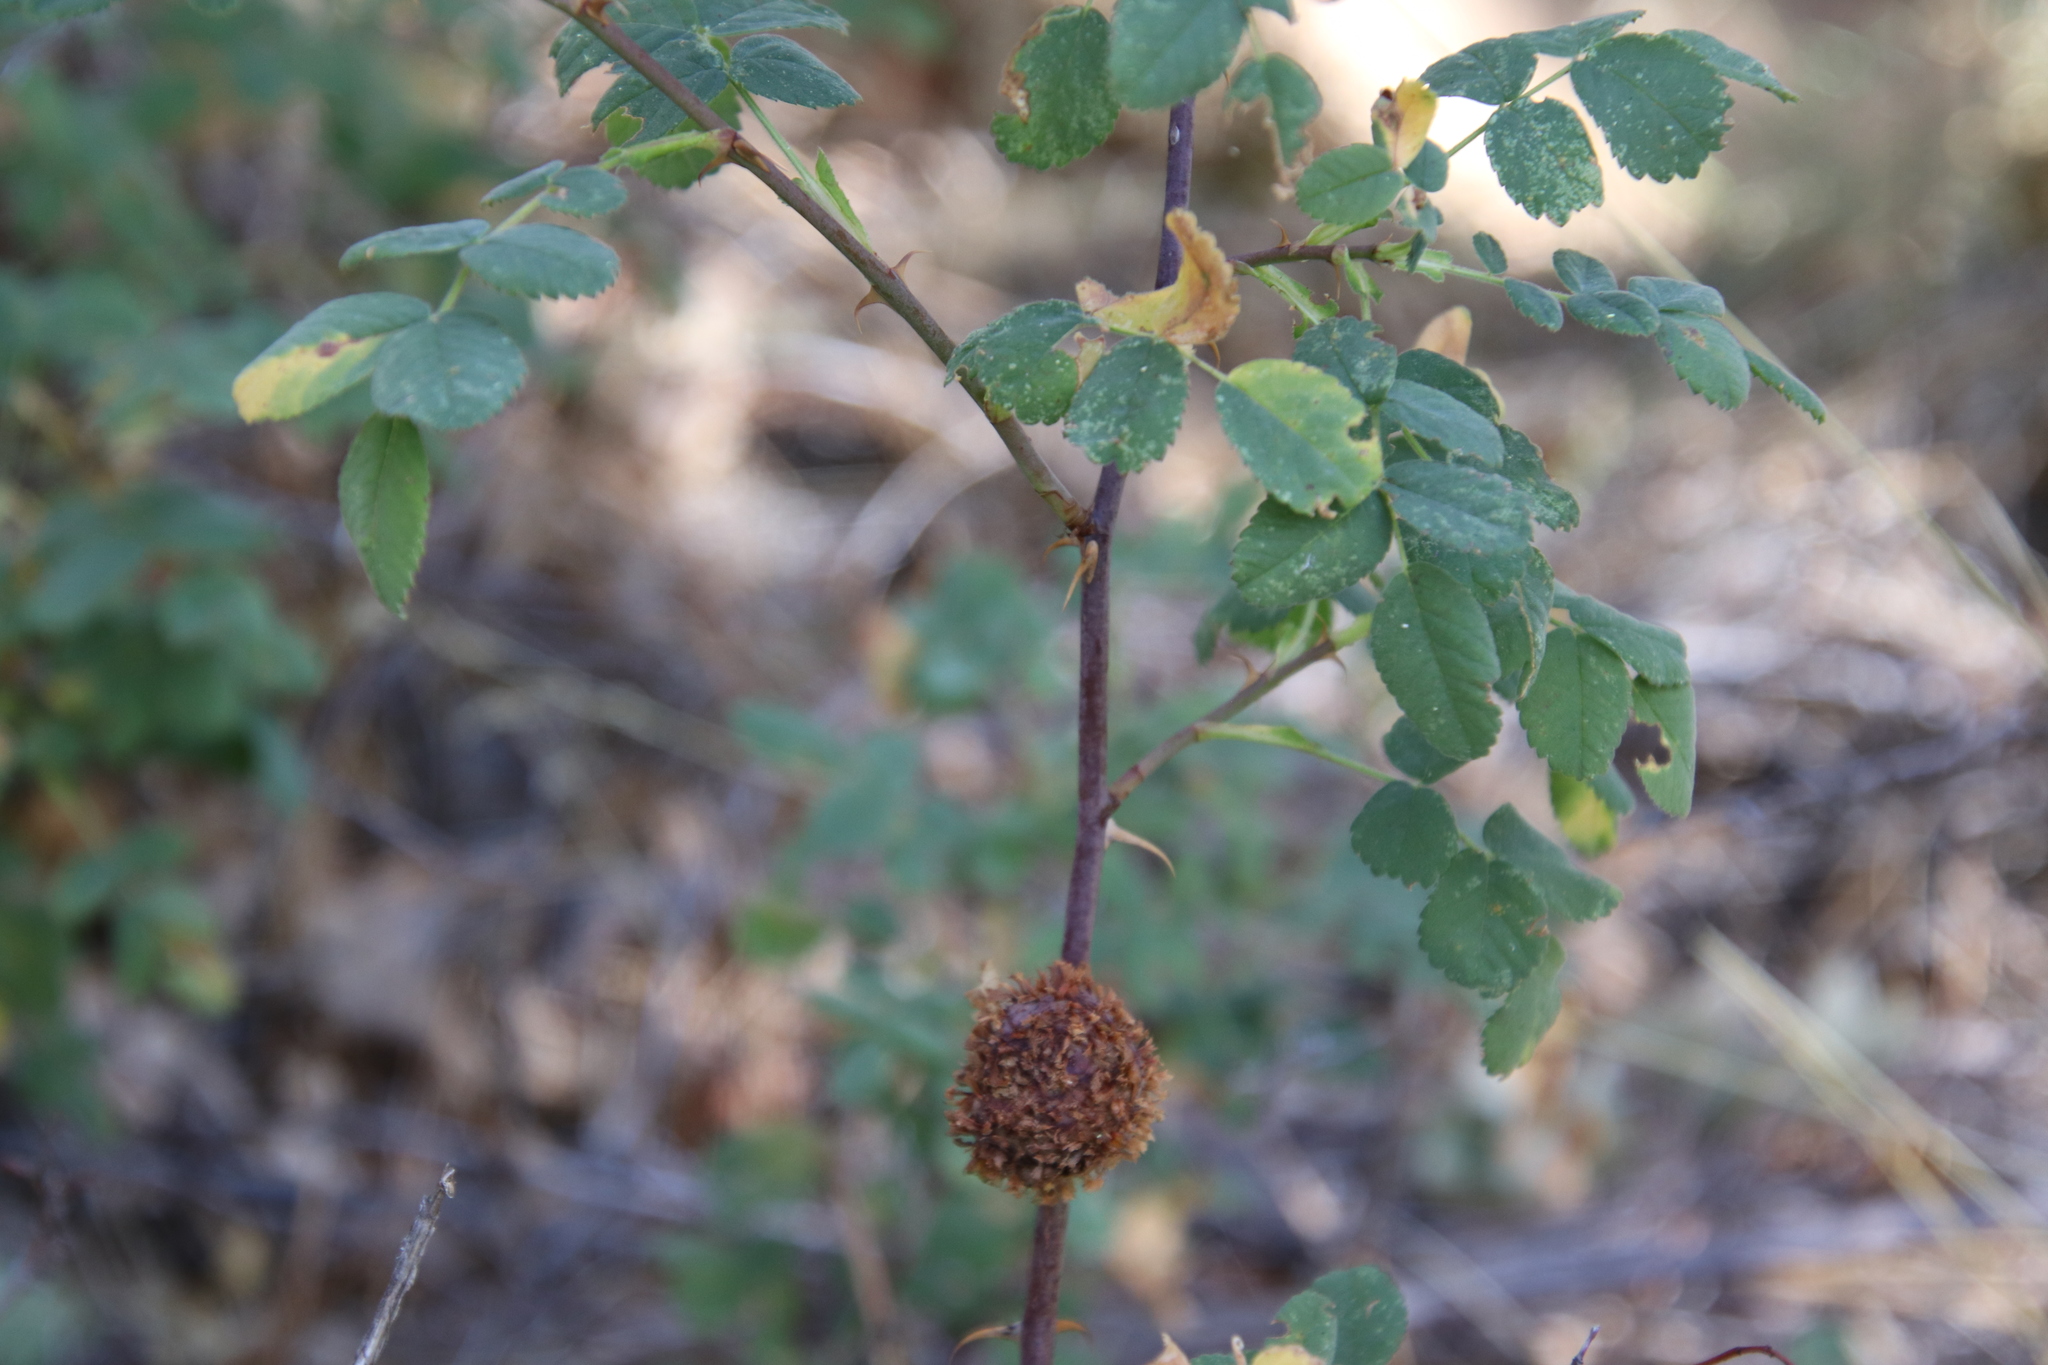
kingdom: Animalia
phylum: Arthropoda
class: Insecta
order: Hymenoptera
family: Cynipidae
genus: Diplolepis
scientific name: Diplolepis californica
